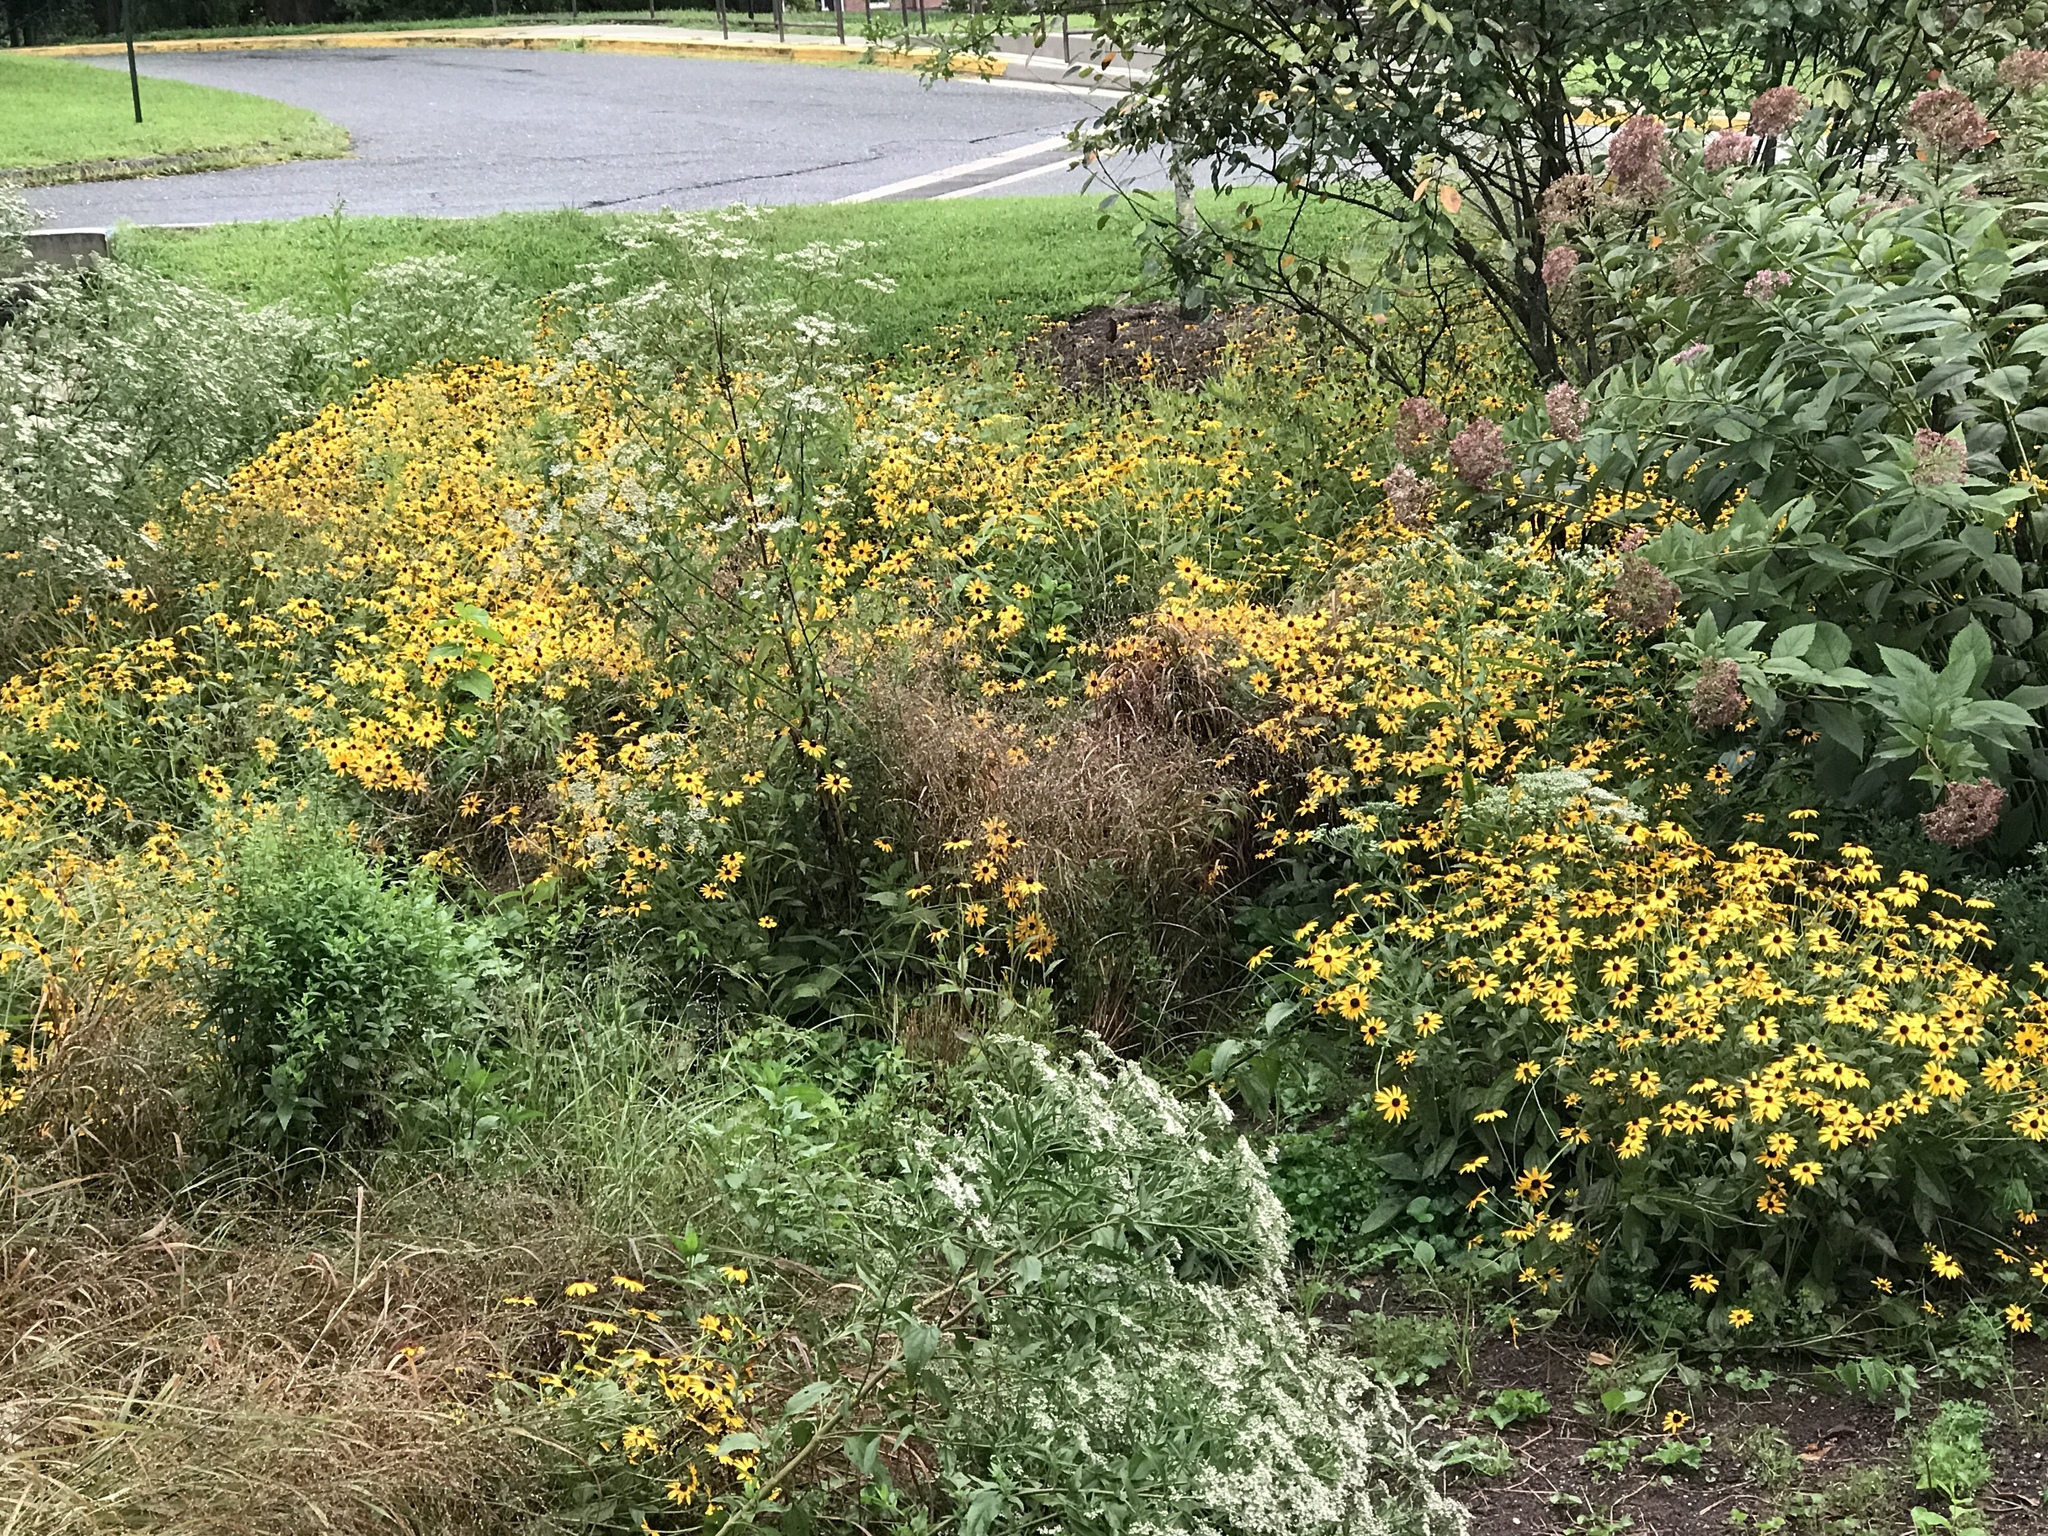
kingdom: Plantae
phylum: Tracheophyta
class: Magnoliopsida
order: Asterales
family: Asteraceae
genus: Rudbeckia
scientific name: Rudbeckia hirta
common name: Black-eyed-susan
